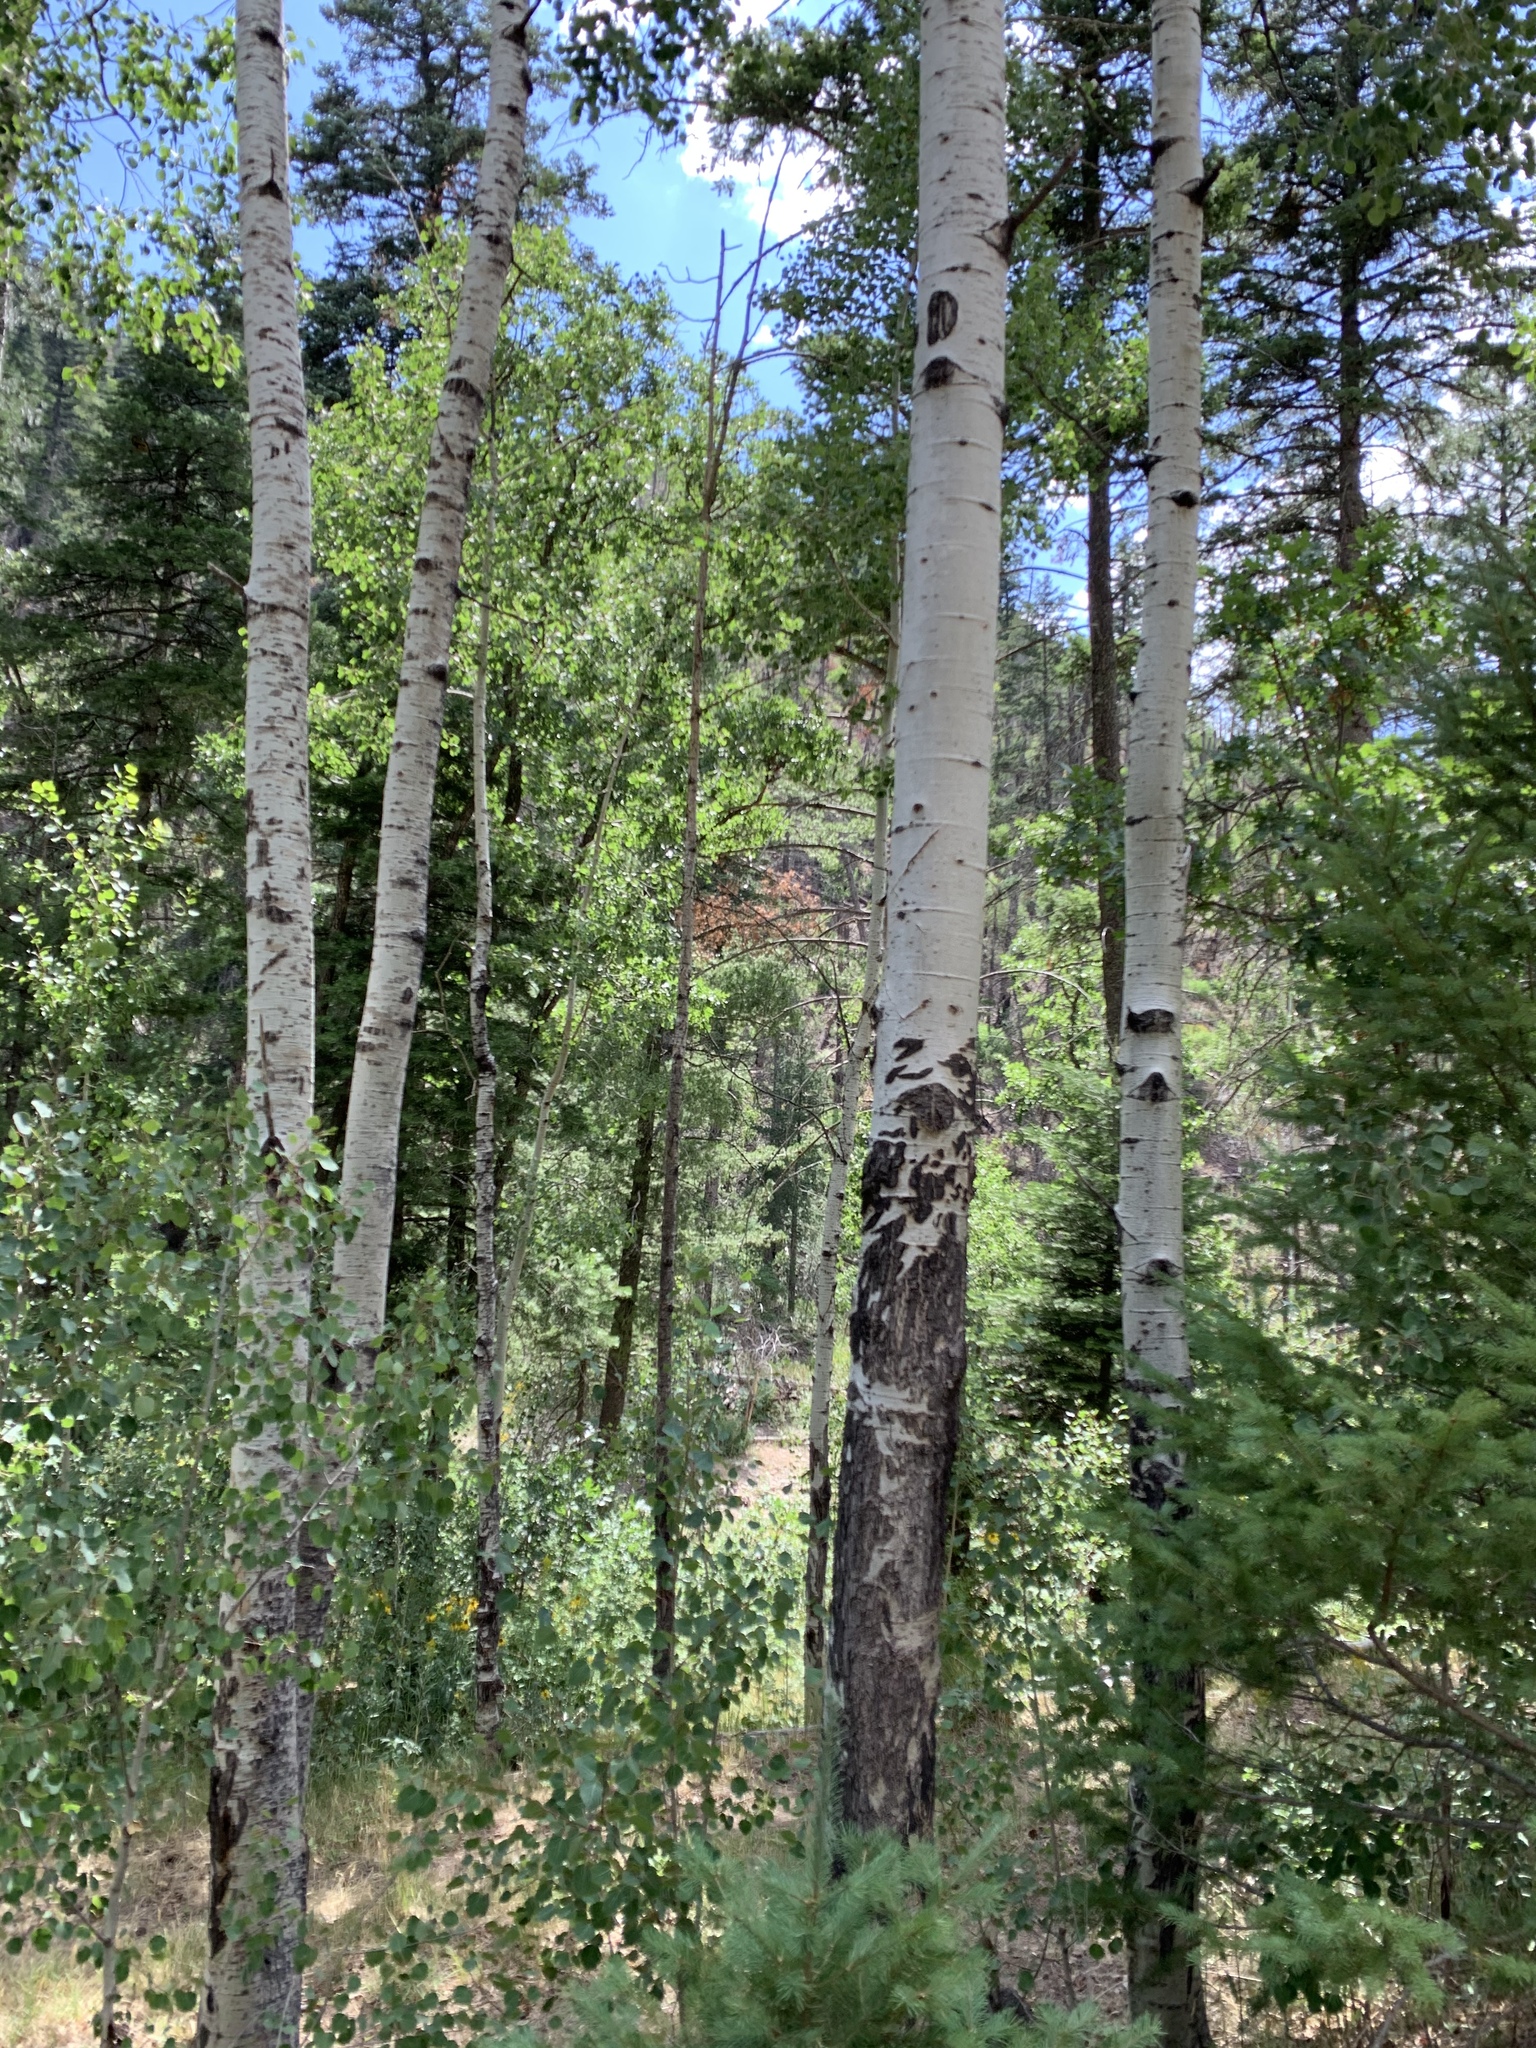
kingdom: Plantae
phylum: Tracheophyta
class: Magnoliopsida
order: Malpighiales
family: Salicaceae
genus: Populus
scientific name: Populus tremuloides
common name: Quaking aspen
